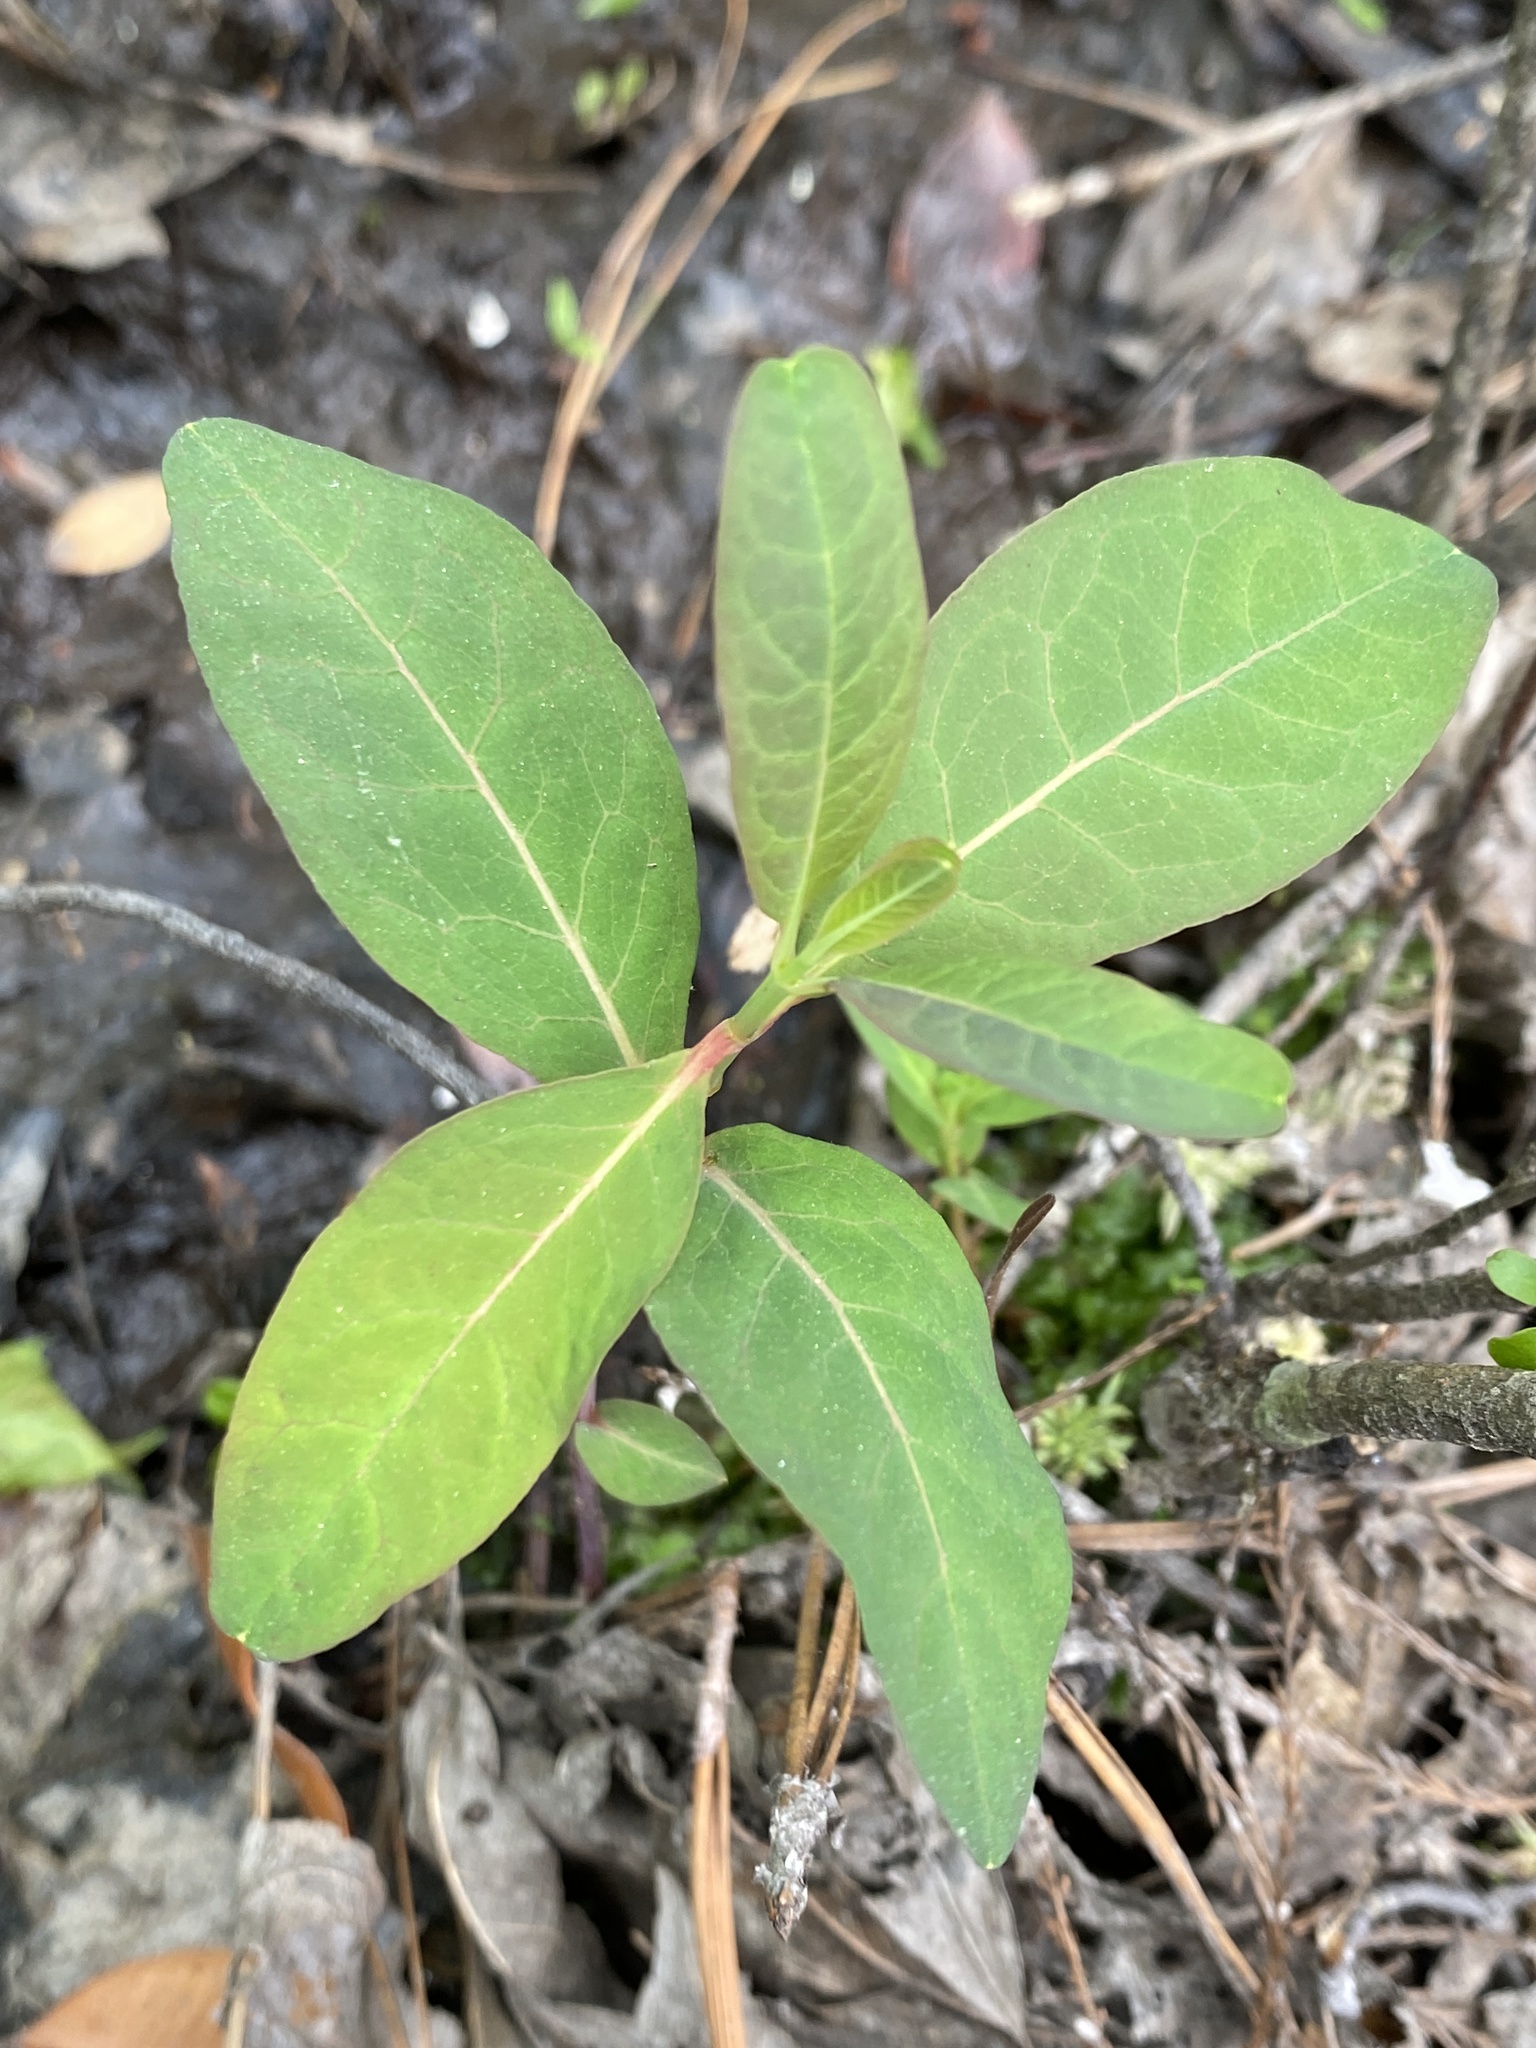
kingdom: Plantae
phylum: Tracheophyta
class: Magnoliopsida
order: Malpighiales
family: Hypericaceae
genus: Triadenum
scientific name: Triadenum walteri
